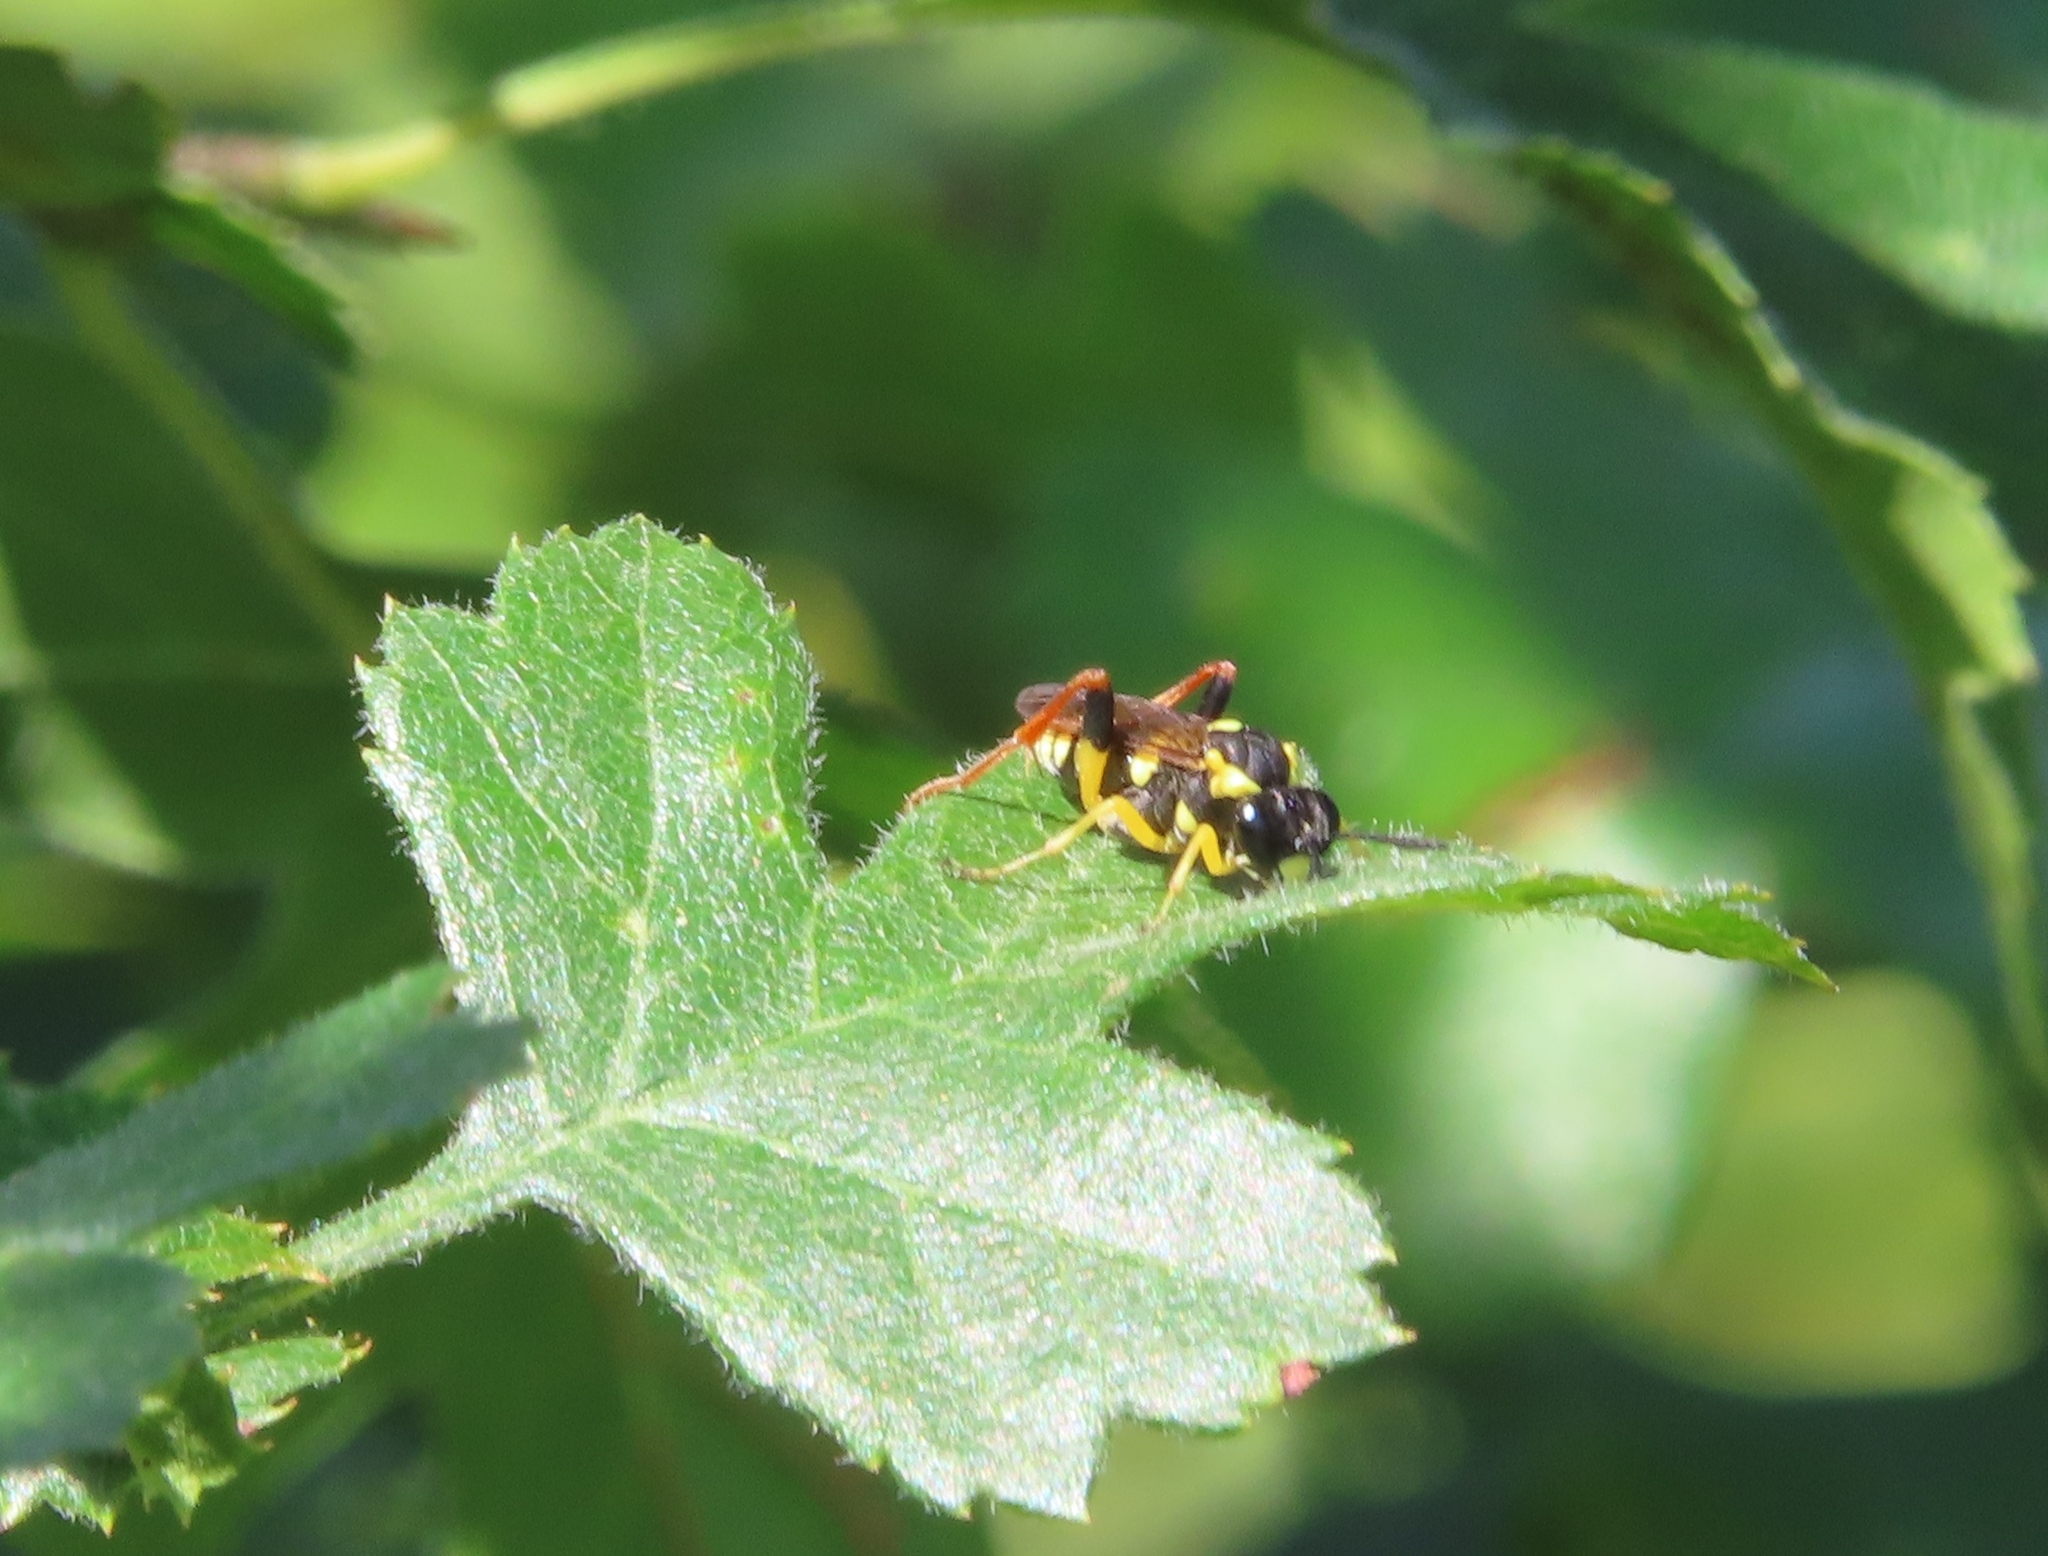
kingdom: Animalia
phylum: Arthropoda
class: Insecta
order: Hymenoptera
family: Tenthredinidae
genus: Macrophya
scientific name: Macrophya postica
